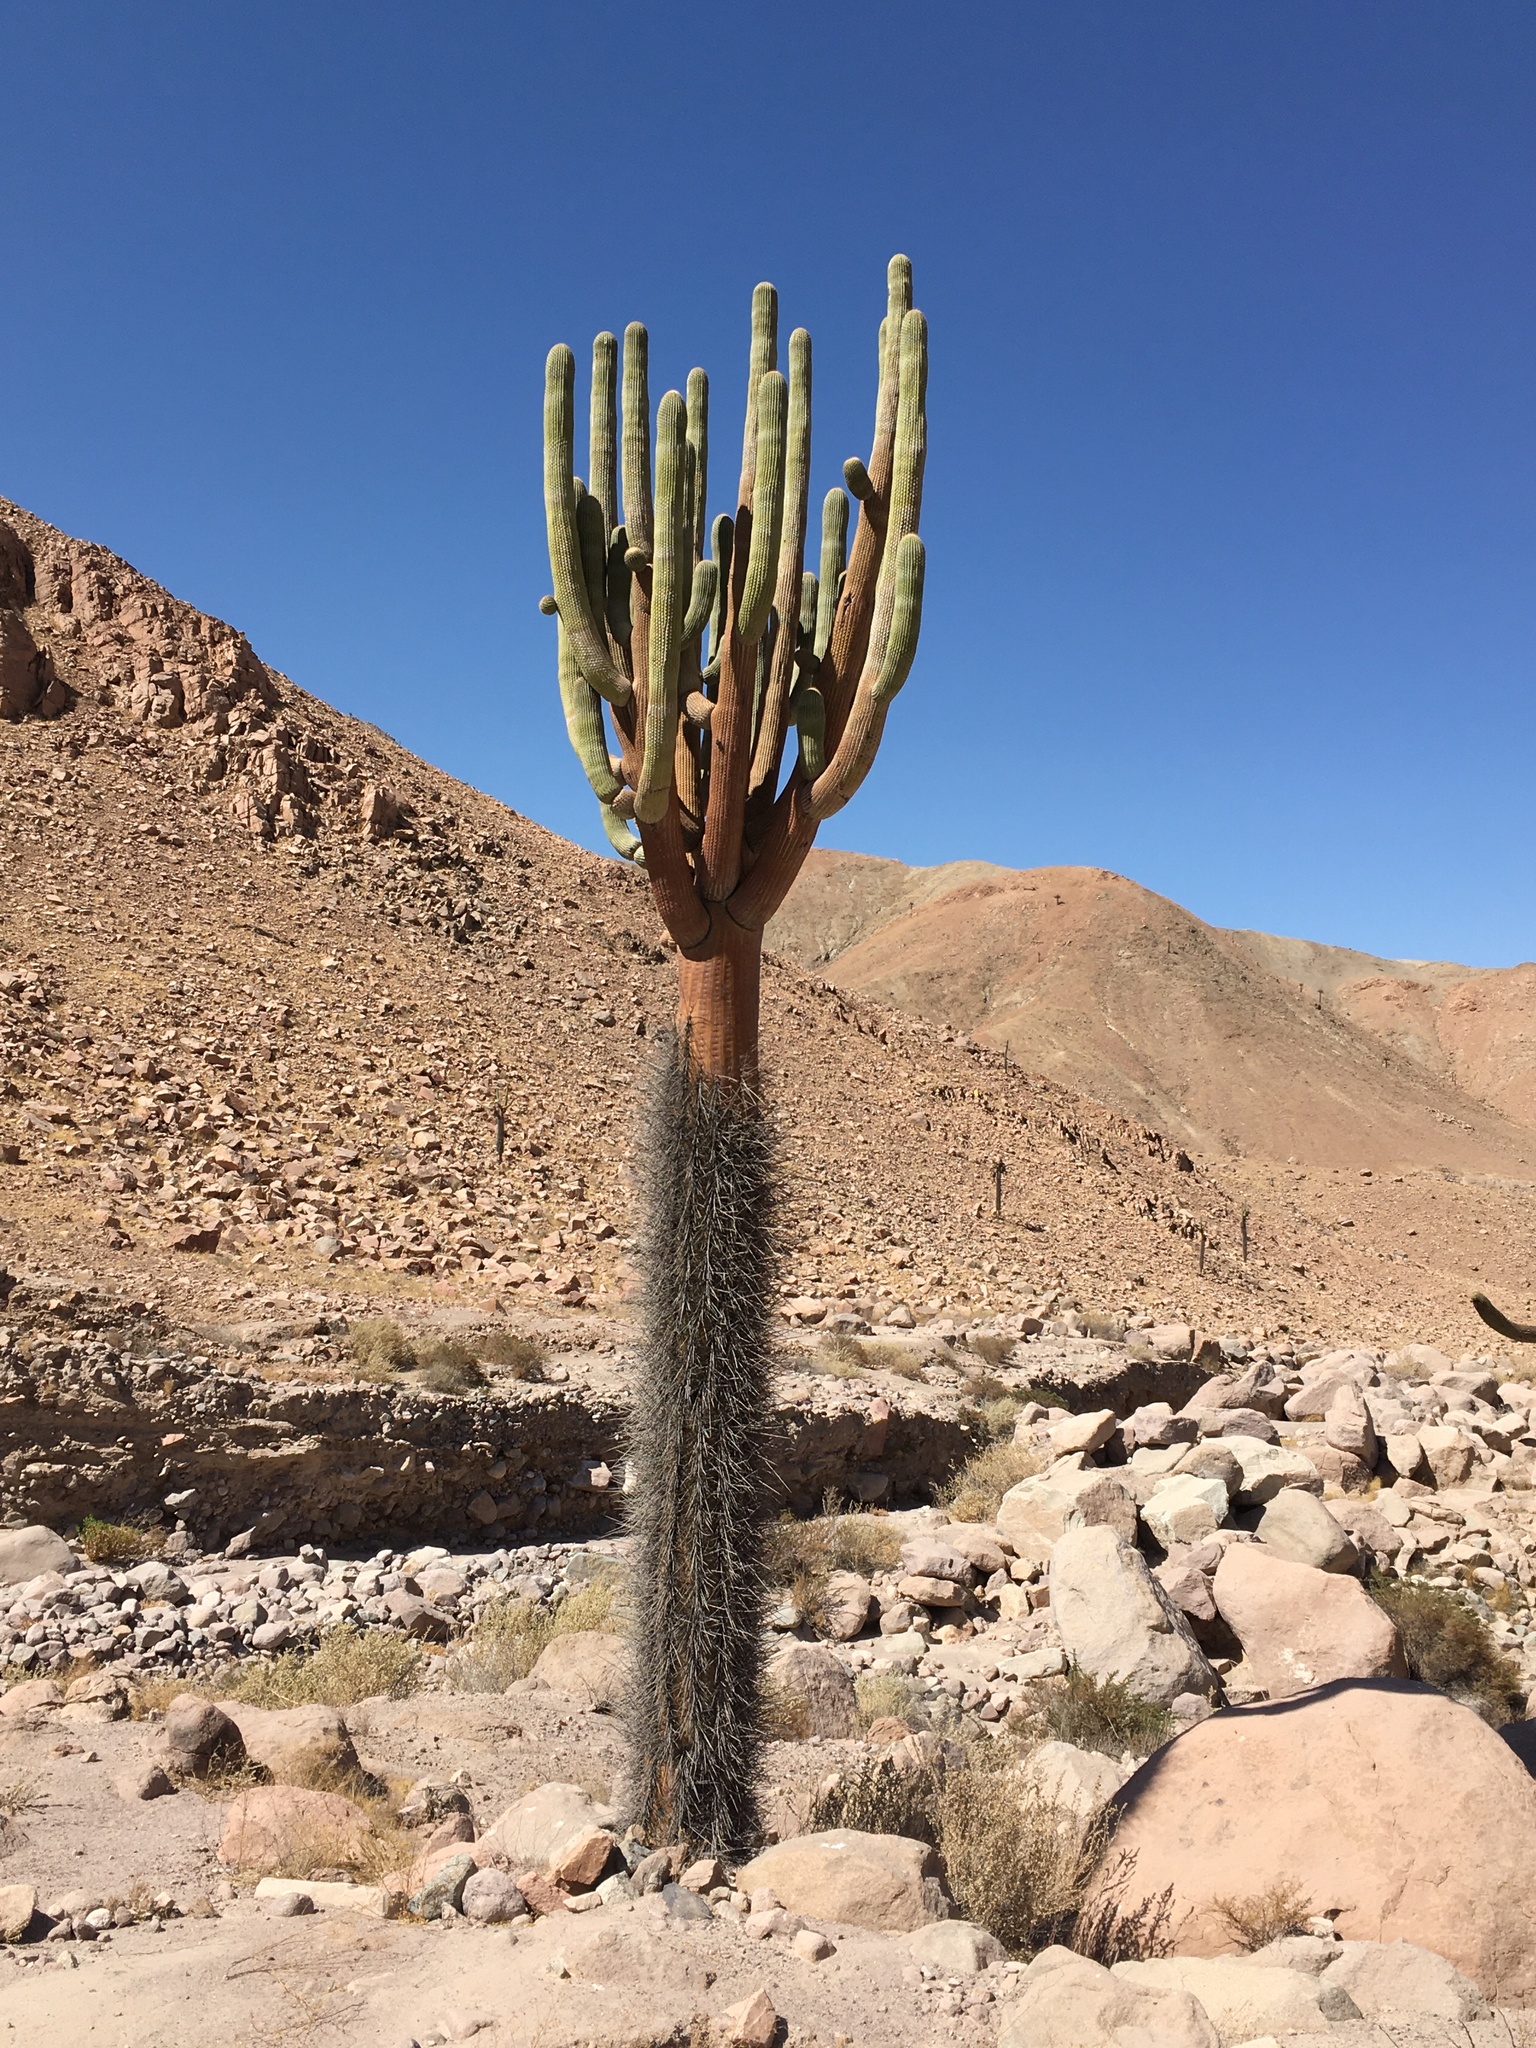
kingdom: Plantae
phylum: Tracheophyta
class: Magnoliopsida
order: Caryophyllales
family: Cactaceae
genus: Browningia
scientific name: Browningia candelaris
